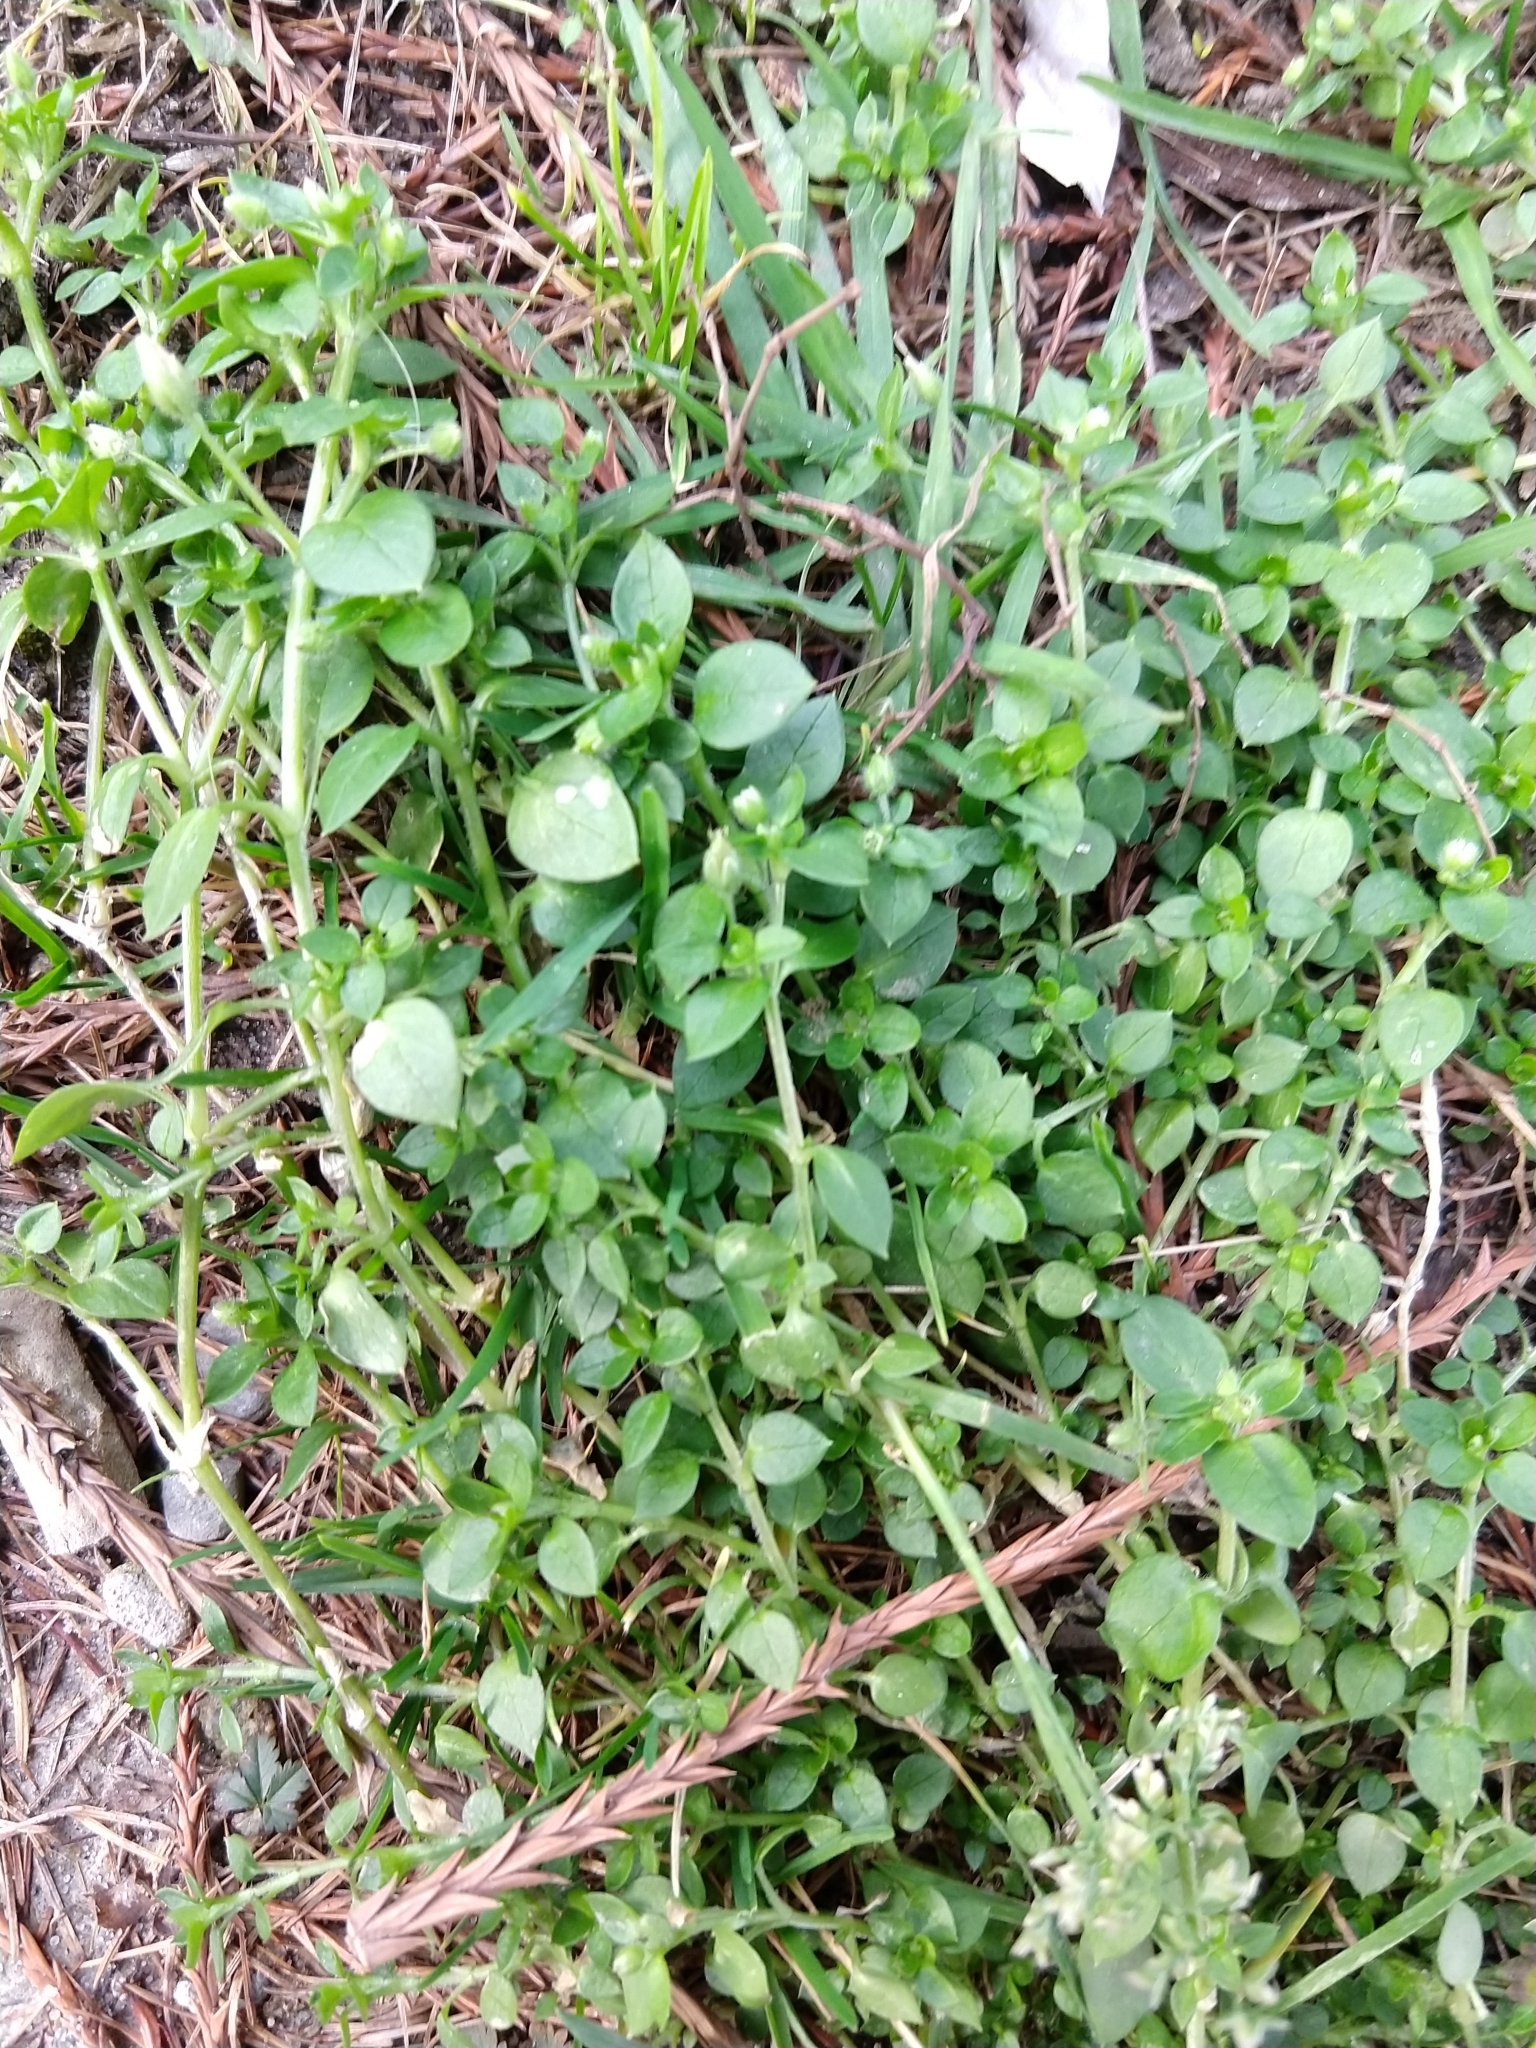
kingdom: Plantae
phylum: Tracheophyta
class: Magnoliopsida
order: Caryophyllales
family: Caryophyllaceae
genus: Stellaria
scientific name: Stellaria media
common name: Common chickweed
